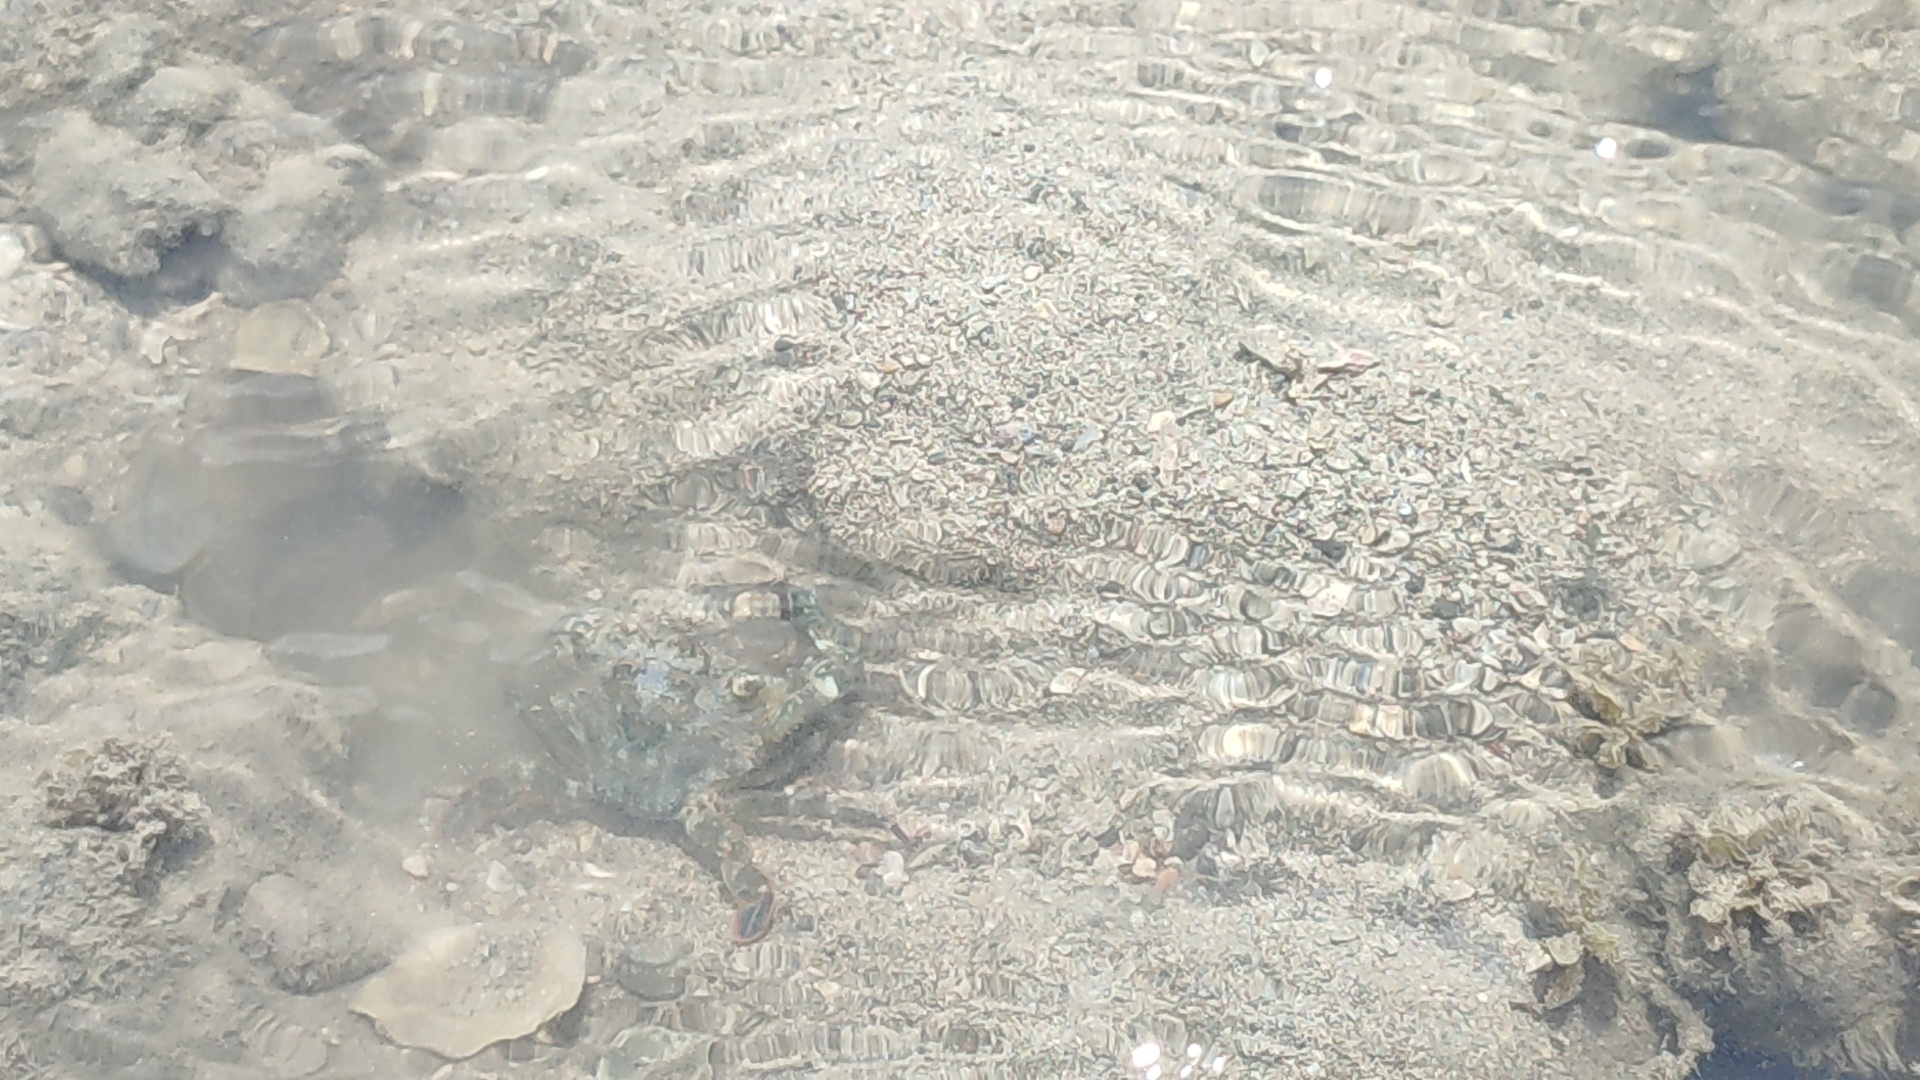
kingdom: Animalia
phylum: Arthropoda
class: Malacostraca
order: Decapoda
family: Portunidae
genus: Thalamita
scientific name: Thalamita crenata
